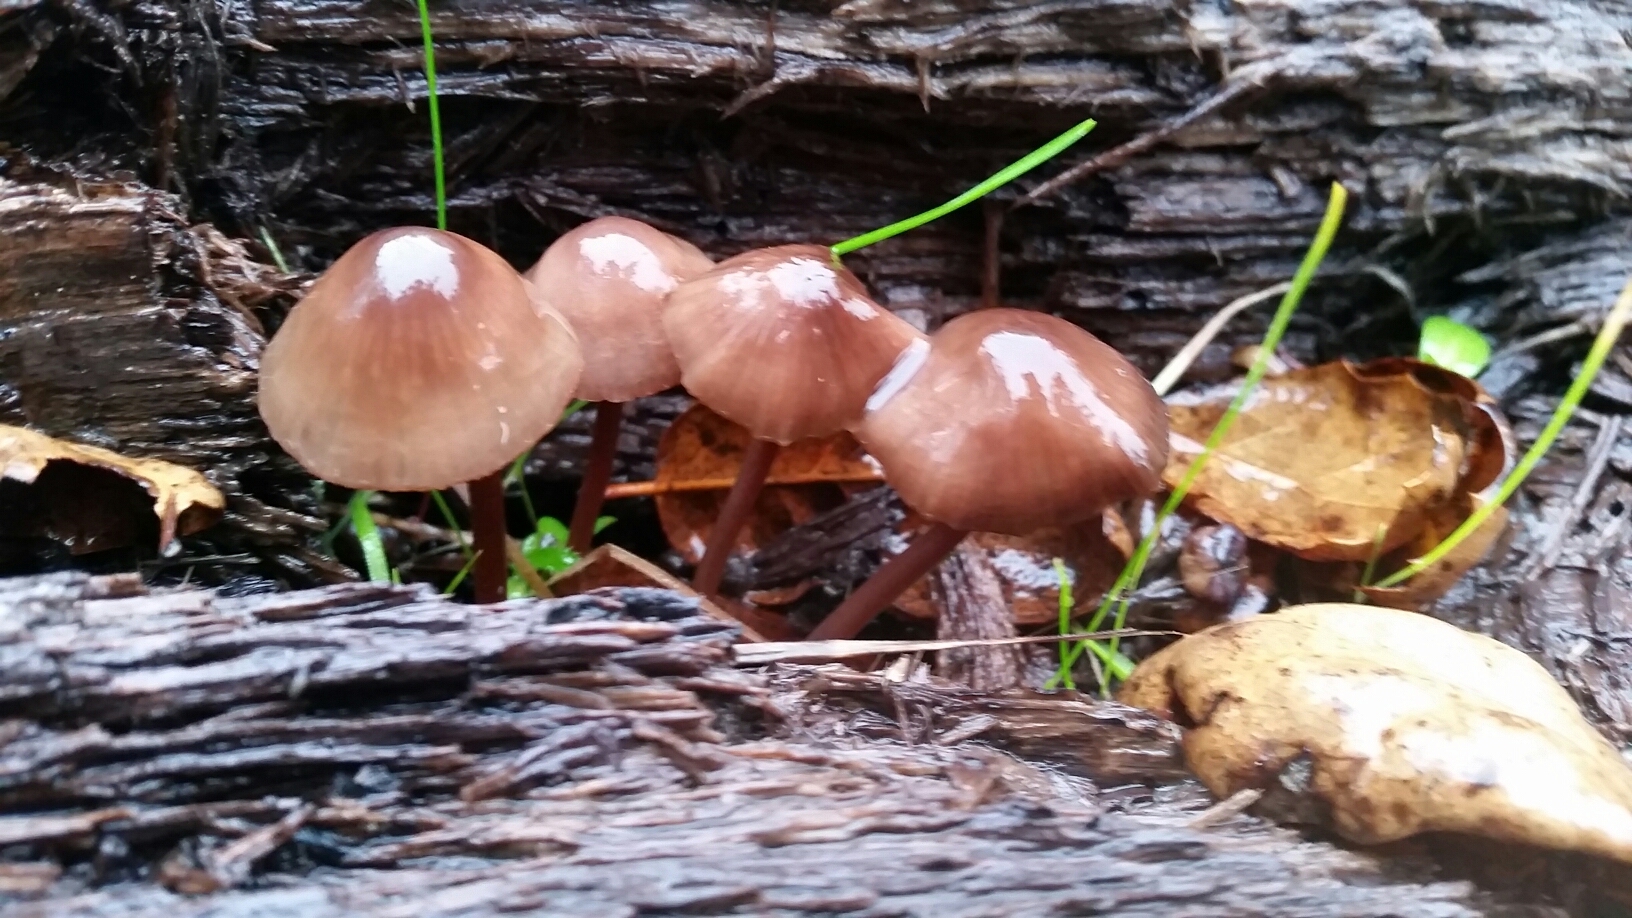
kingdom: Fungi
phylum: Basidiomycota
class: Agaricomycetes
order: Agaricales
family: Mycenaceae
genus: Mycena
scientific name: Mycena haematopus
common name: Burgundydrop bonnet
